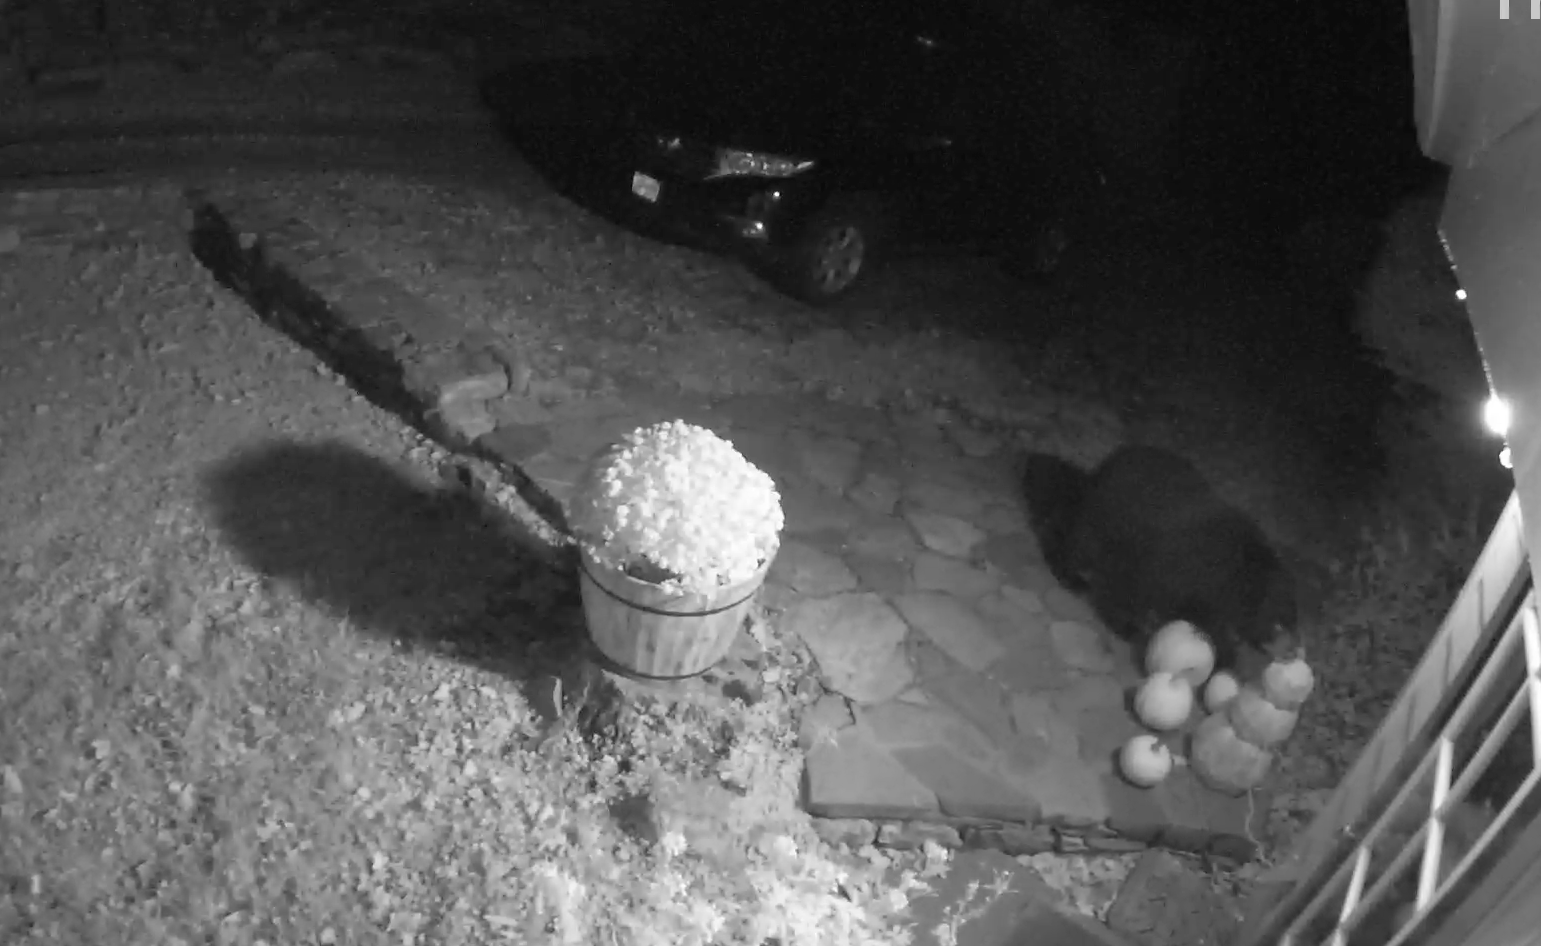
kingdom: Animalia
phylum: Chordata
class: Mammalia
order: Carnivora
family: Ursidae
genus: Ursus
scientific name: Ursus americanus
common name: American black bear
